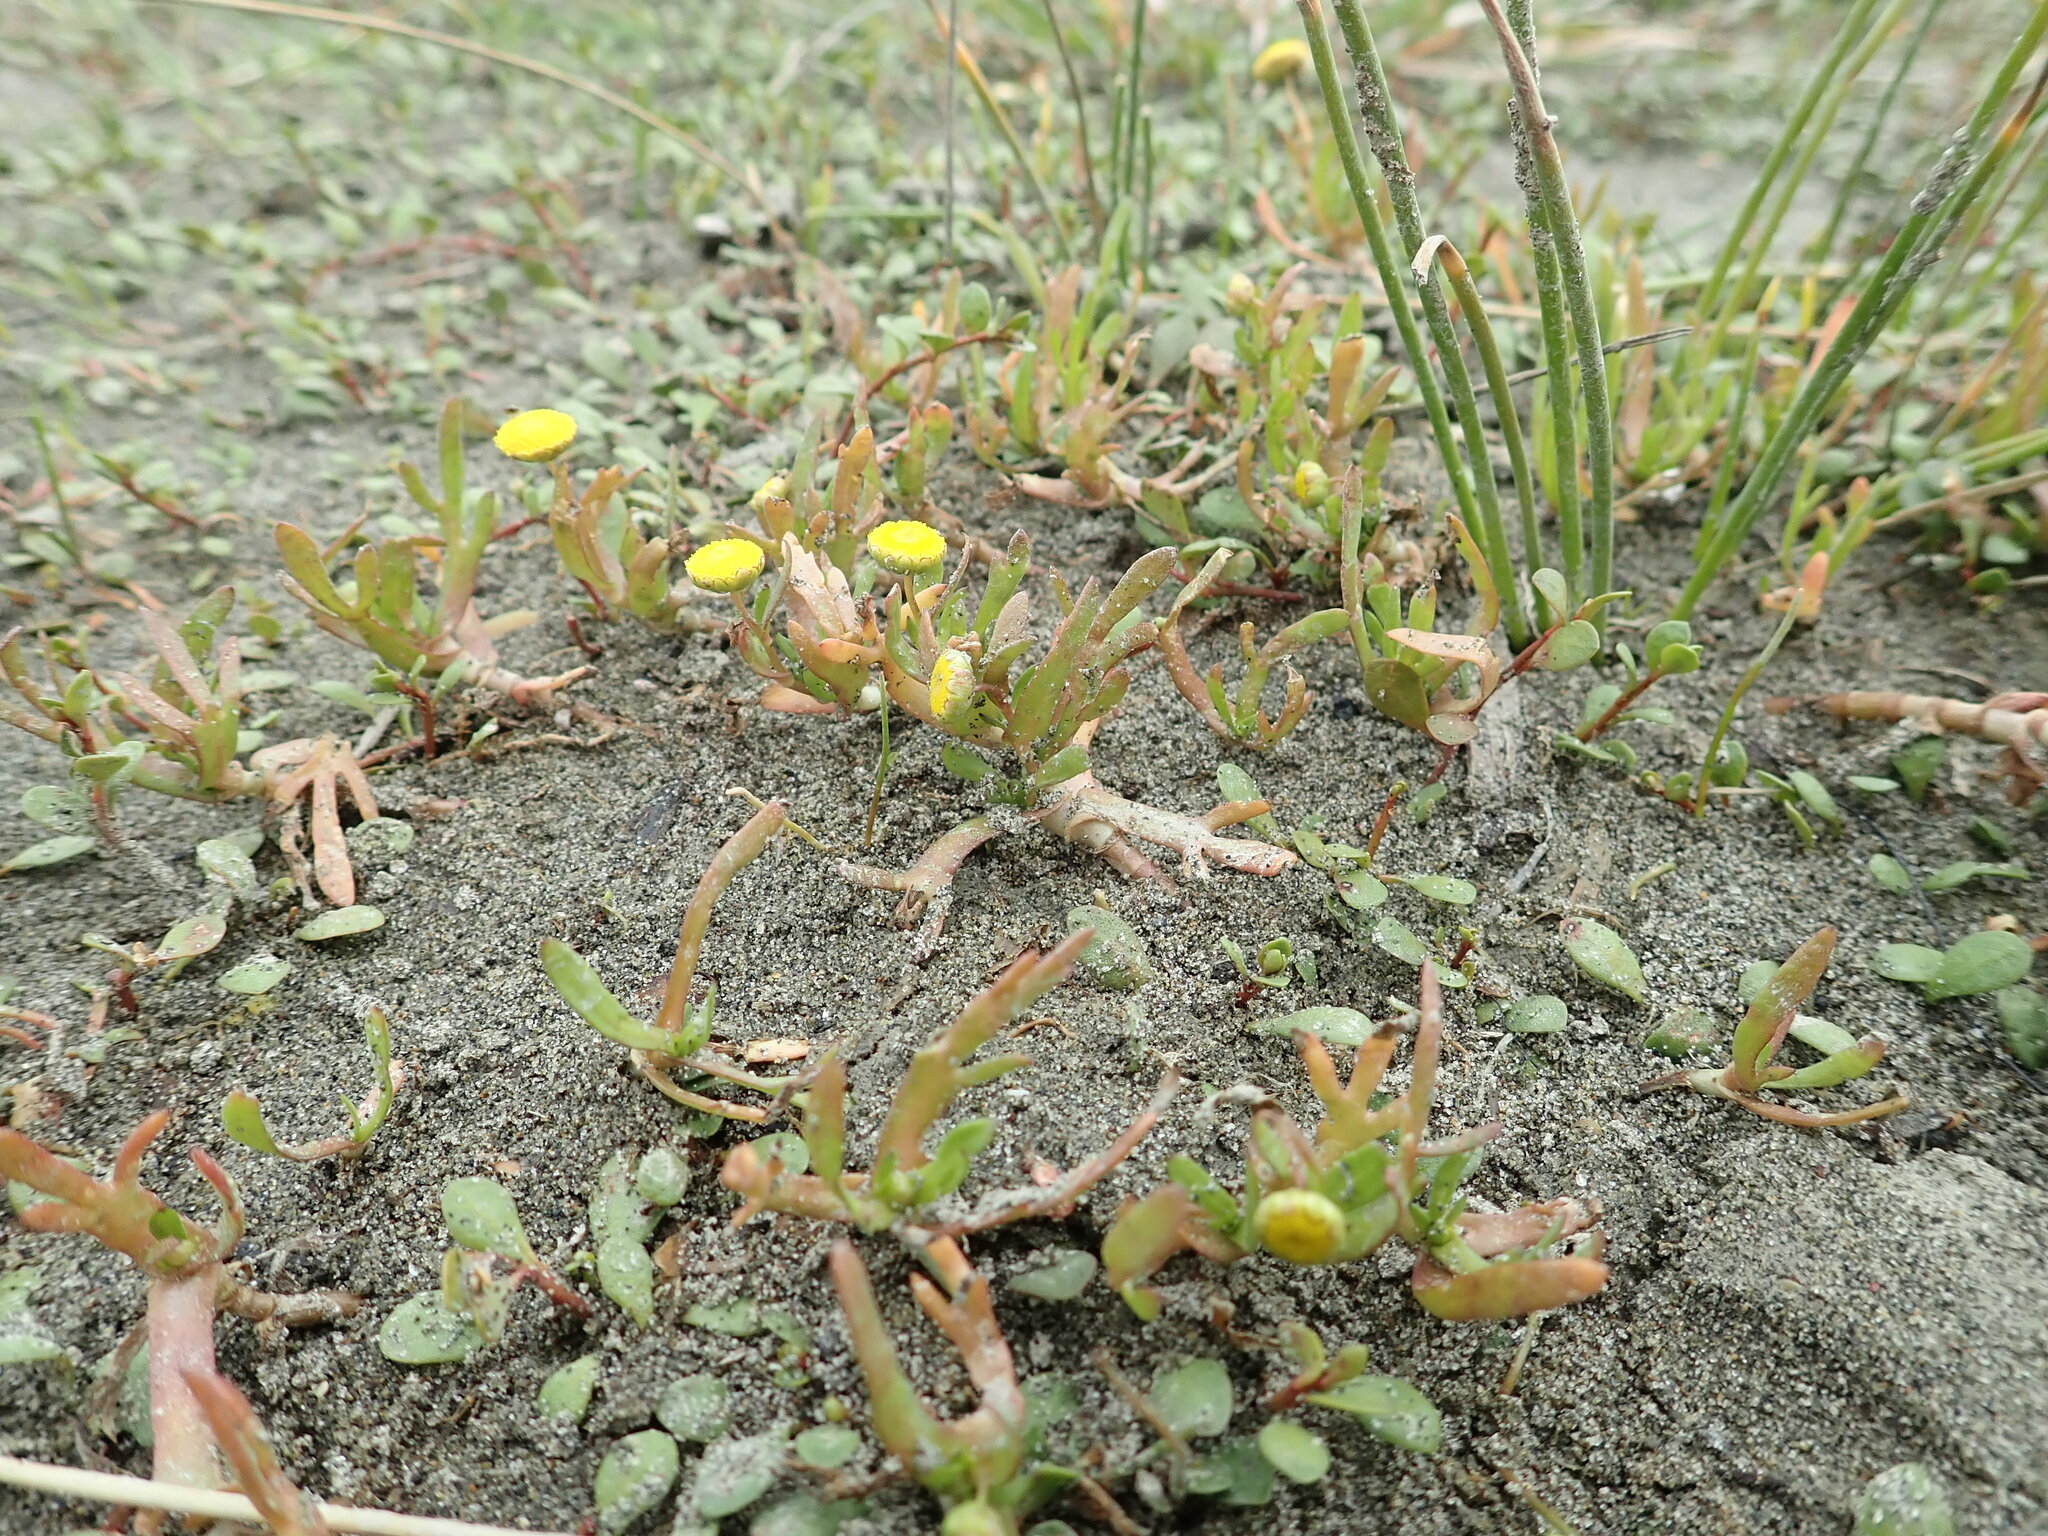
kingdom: Plantae
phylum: Tracheophyta
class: Magnoliopsida
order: Asterales
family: Asteraceae
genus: Cotula
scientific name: Cotula coronopifolia
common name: Buttonweed
